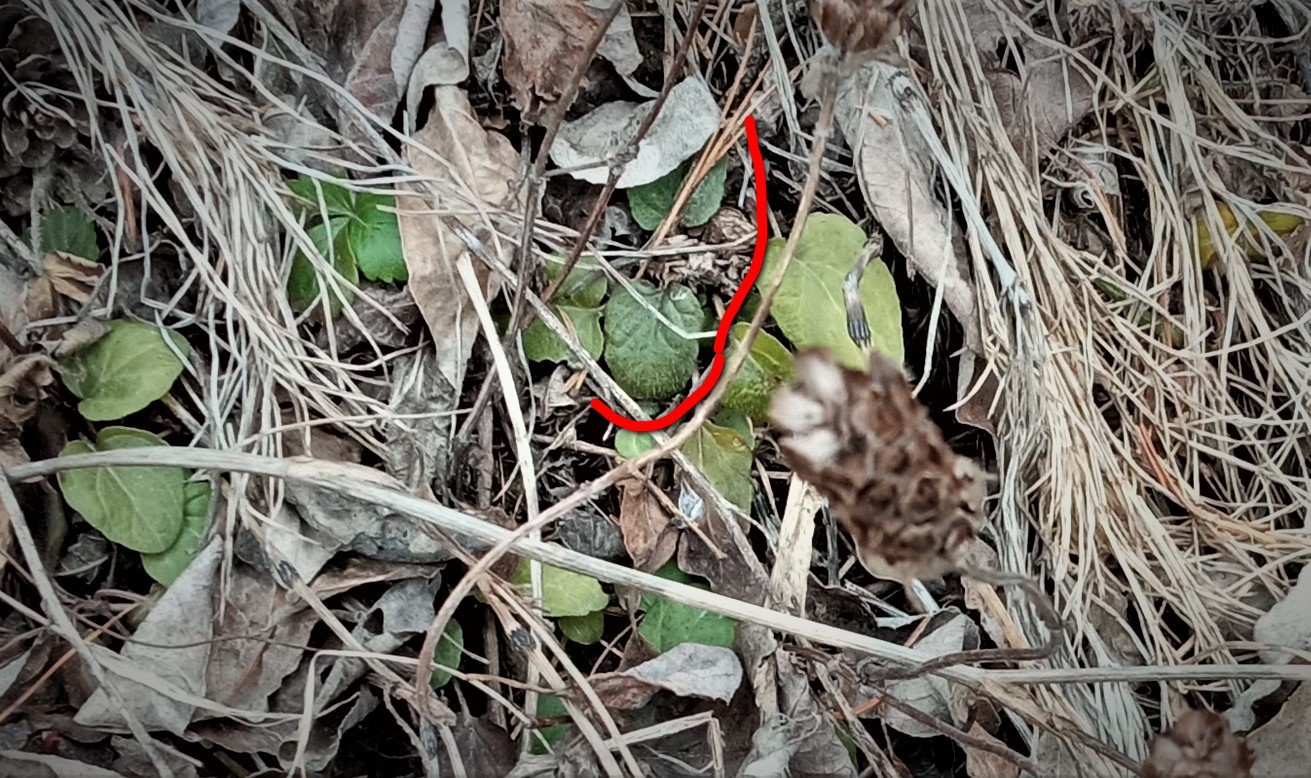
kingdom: Plantae
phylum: Tracheophyta
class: Magnoliopsida
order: Lamiales
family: Lamiaceae
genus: Glechoma
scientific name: Glechoma hederacea
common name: Ground ivy
